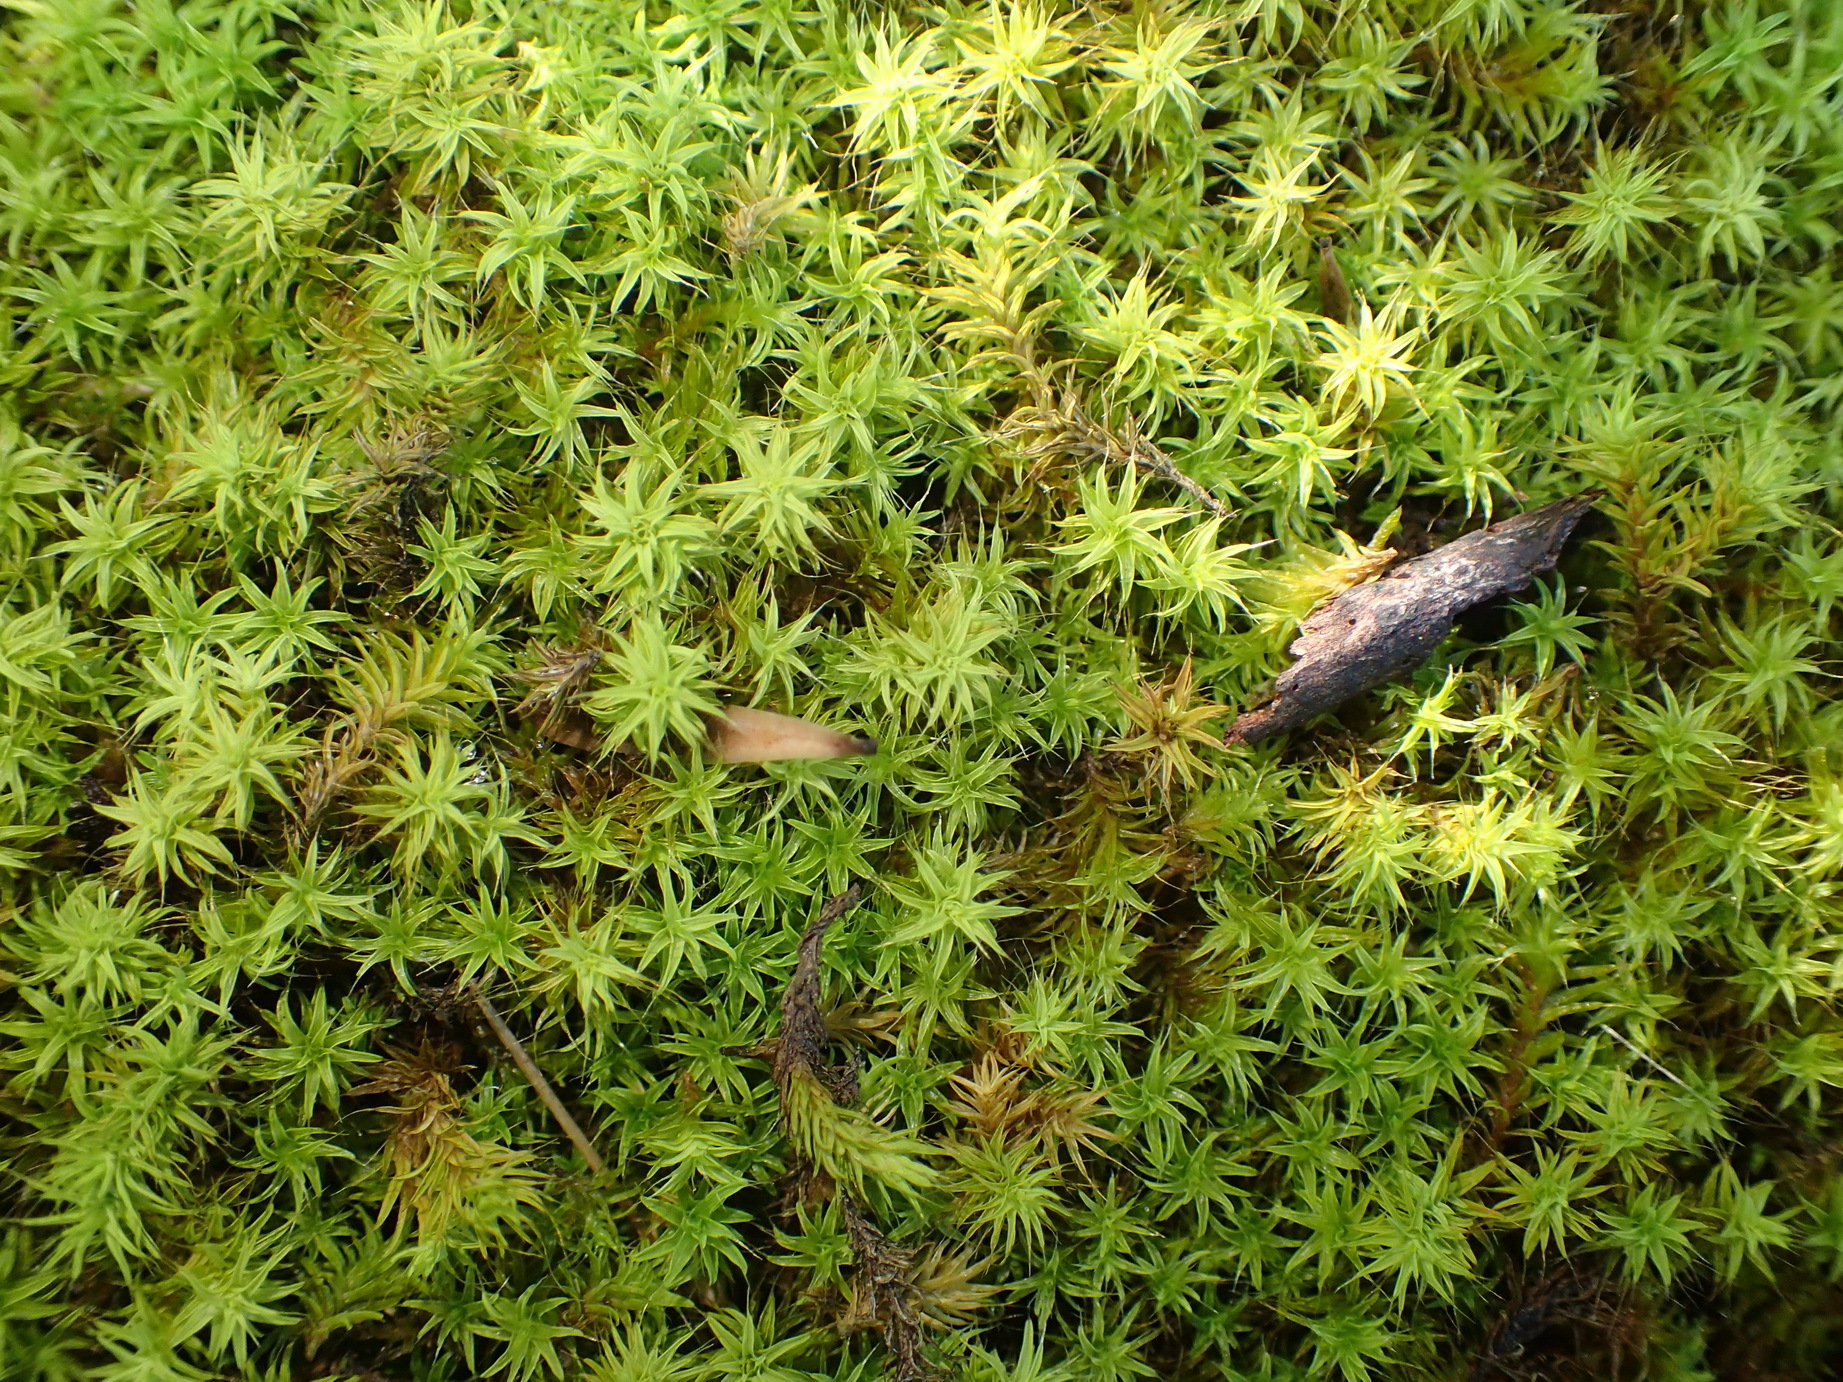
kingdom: Plantae
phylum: Bryophyta
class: Bryopsida
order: Pottiales
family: Pottiaceae
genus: Pseudocrossidium
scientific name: Pseudocrossidium crinitum
